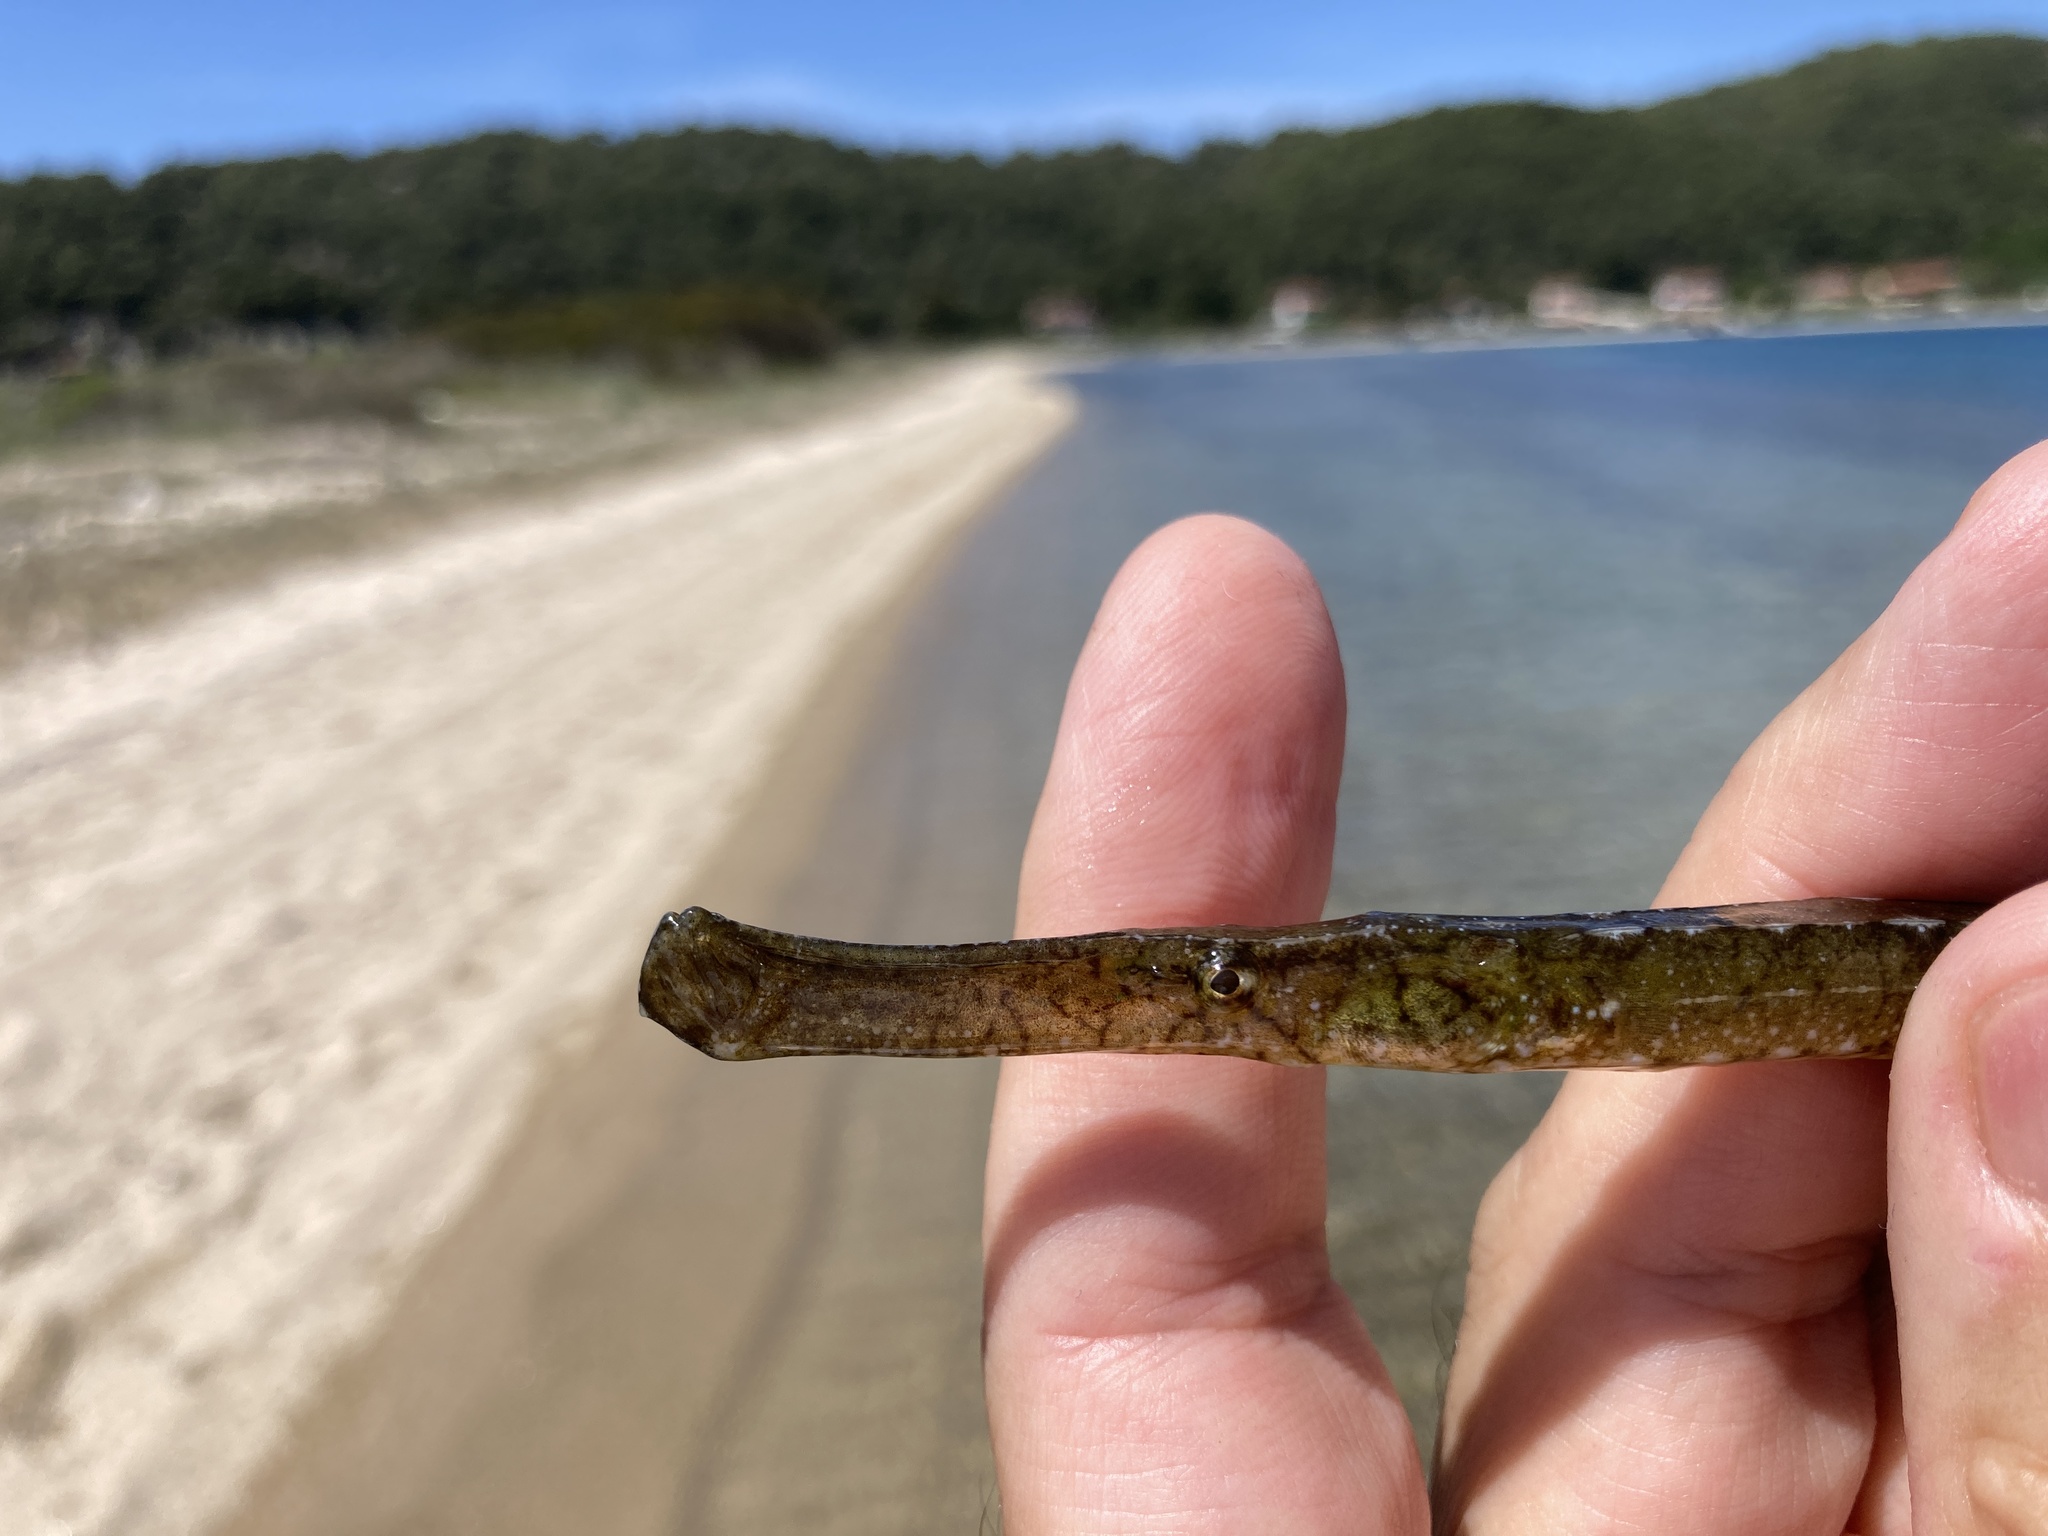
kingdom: Animalia
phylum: Chordata
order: Syngnathiformes
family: Syngnathidae
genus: Syngnathus
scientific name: Syngnathus typhle
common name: Deep-snouted pipefish
